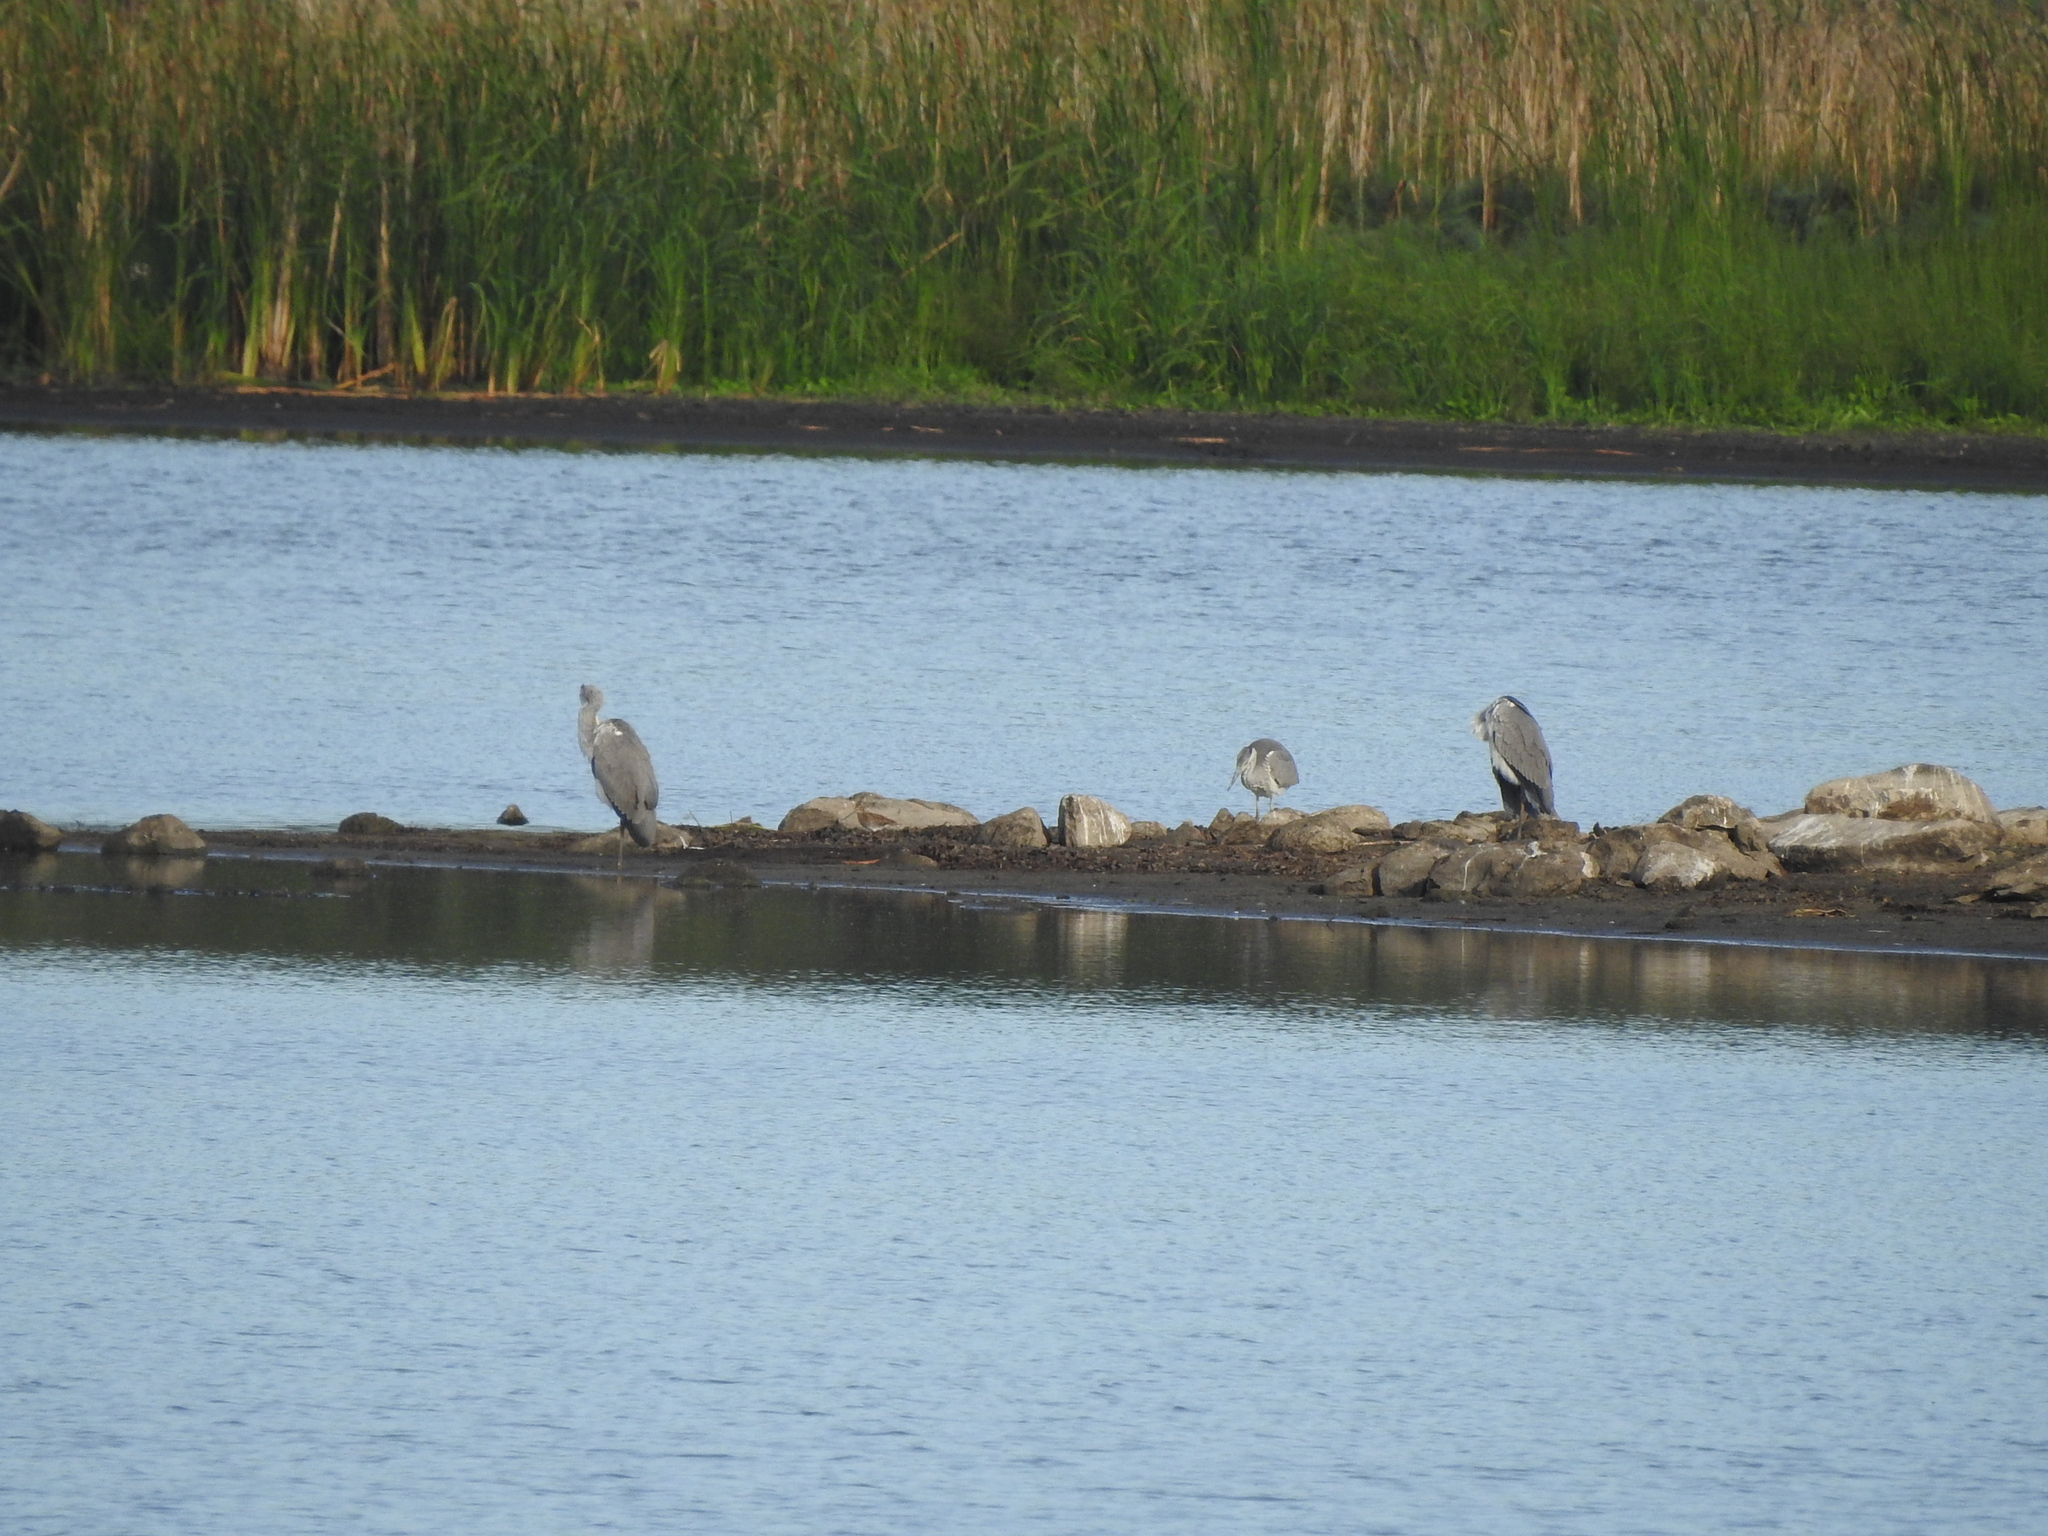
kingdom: Animalia
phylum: Chordata
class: Aves
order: Pelecaniformes
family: Ardeidae
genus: Ardea
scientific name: Ardea cinerea
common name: Grey heron
